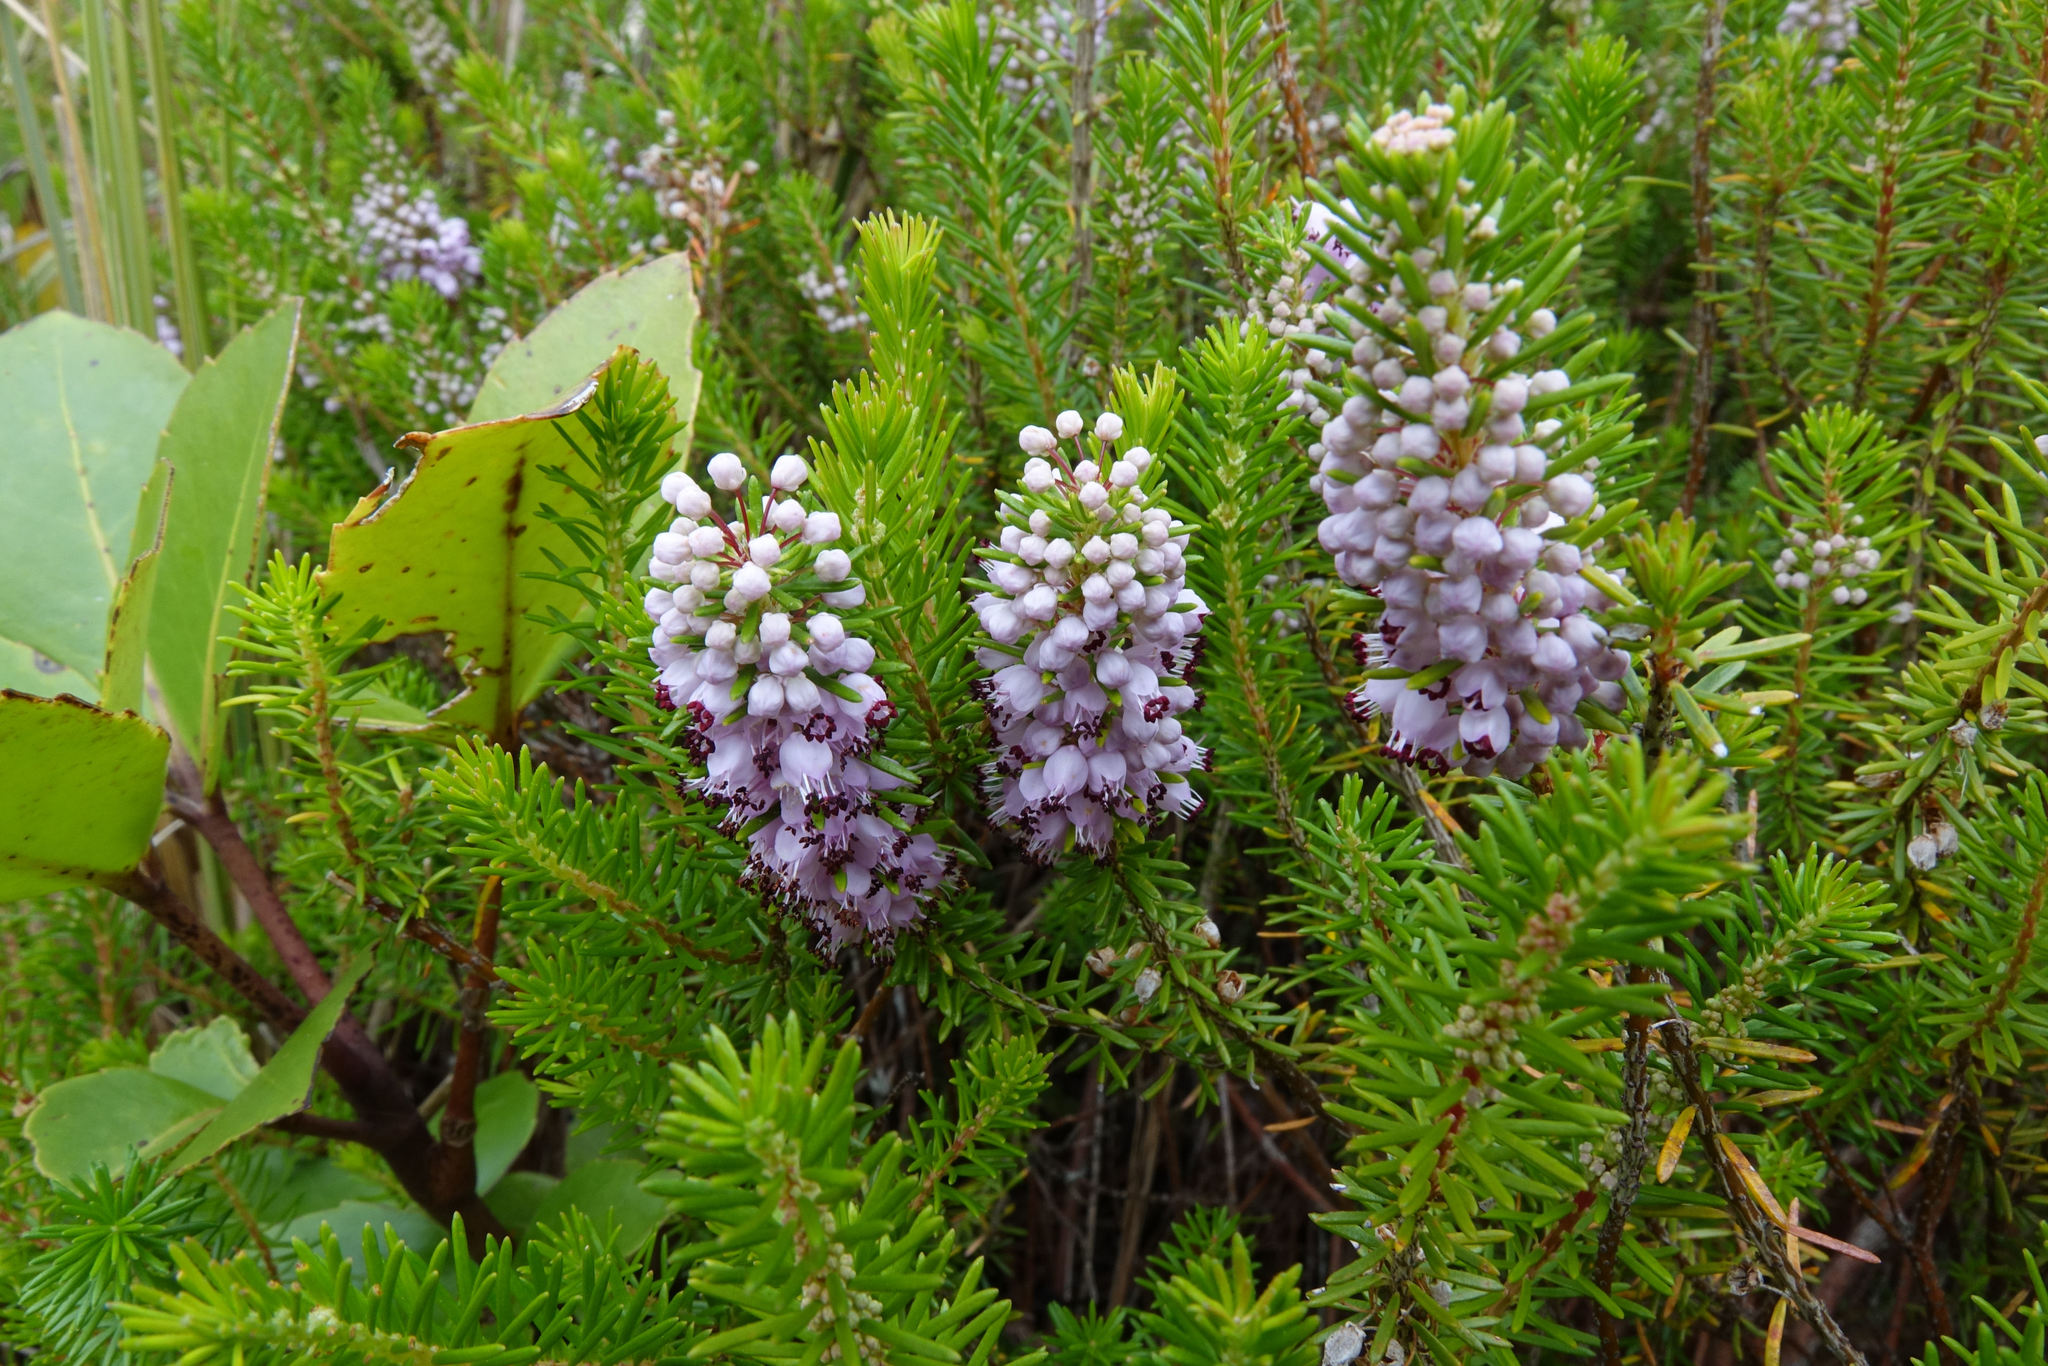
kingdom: Plantae
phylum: Tracheophyta
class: Magnoliopsida
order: Ericales
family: Ericaceae
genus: Erica
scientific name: Erica vagans
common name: Cornish heath
